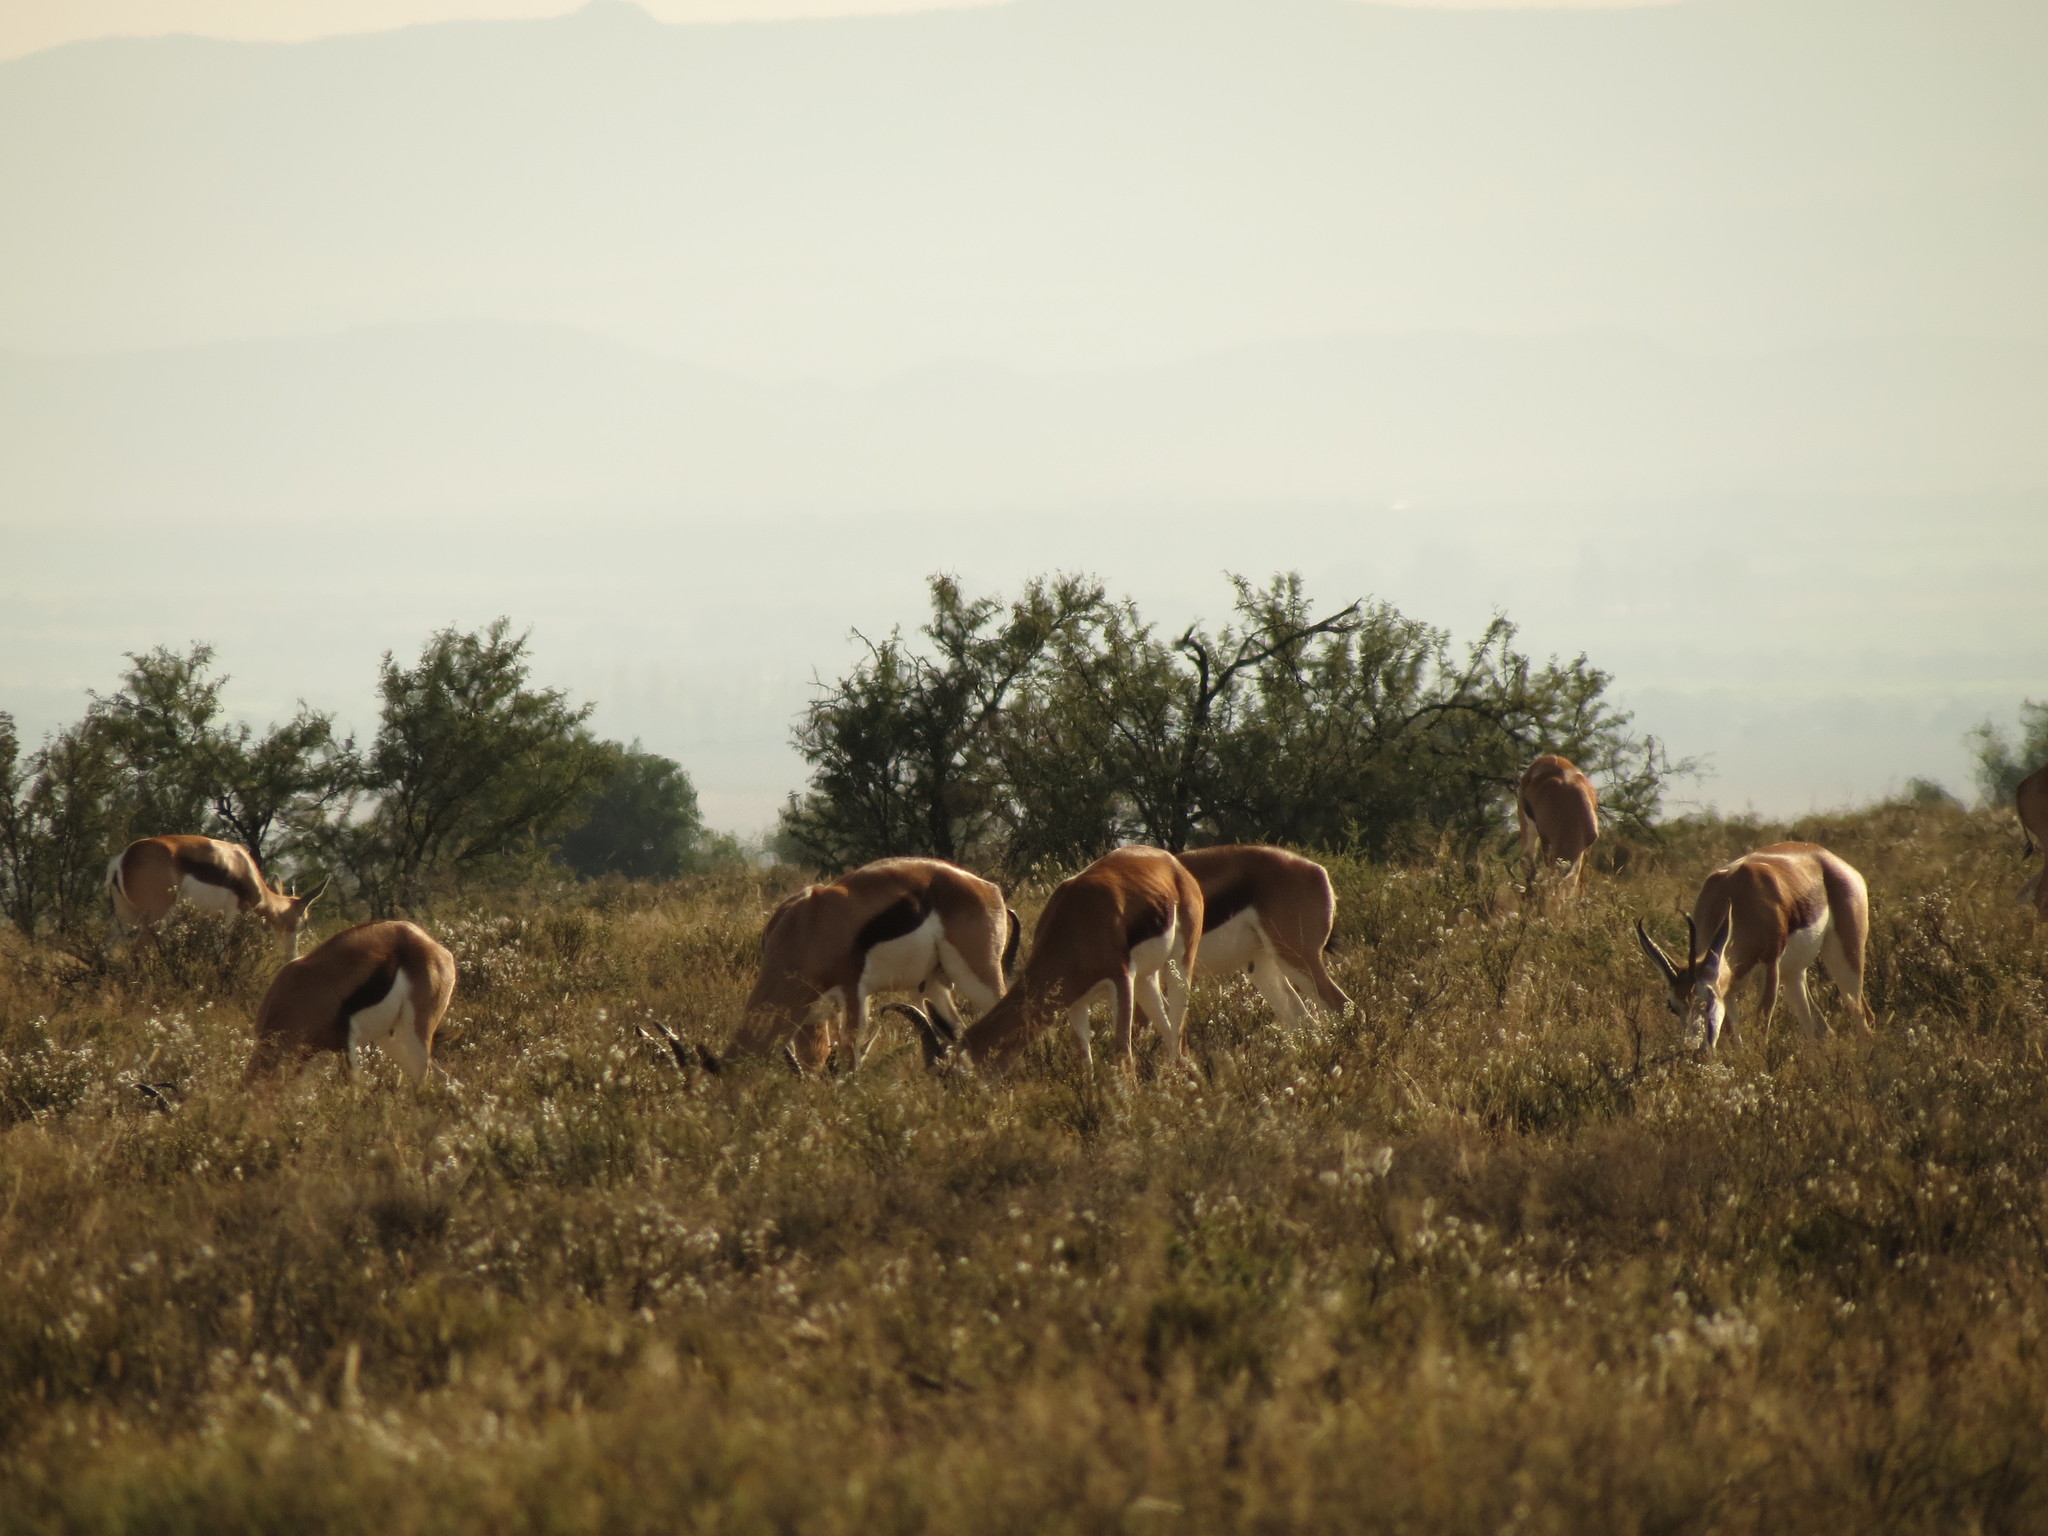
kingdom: Animalia
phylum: Chordata
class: Mammalia
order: Artiodactyla
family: Bovidae
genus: Antidorcas
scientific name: Antidorcas marsupialis
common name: Springbok
